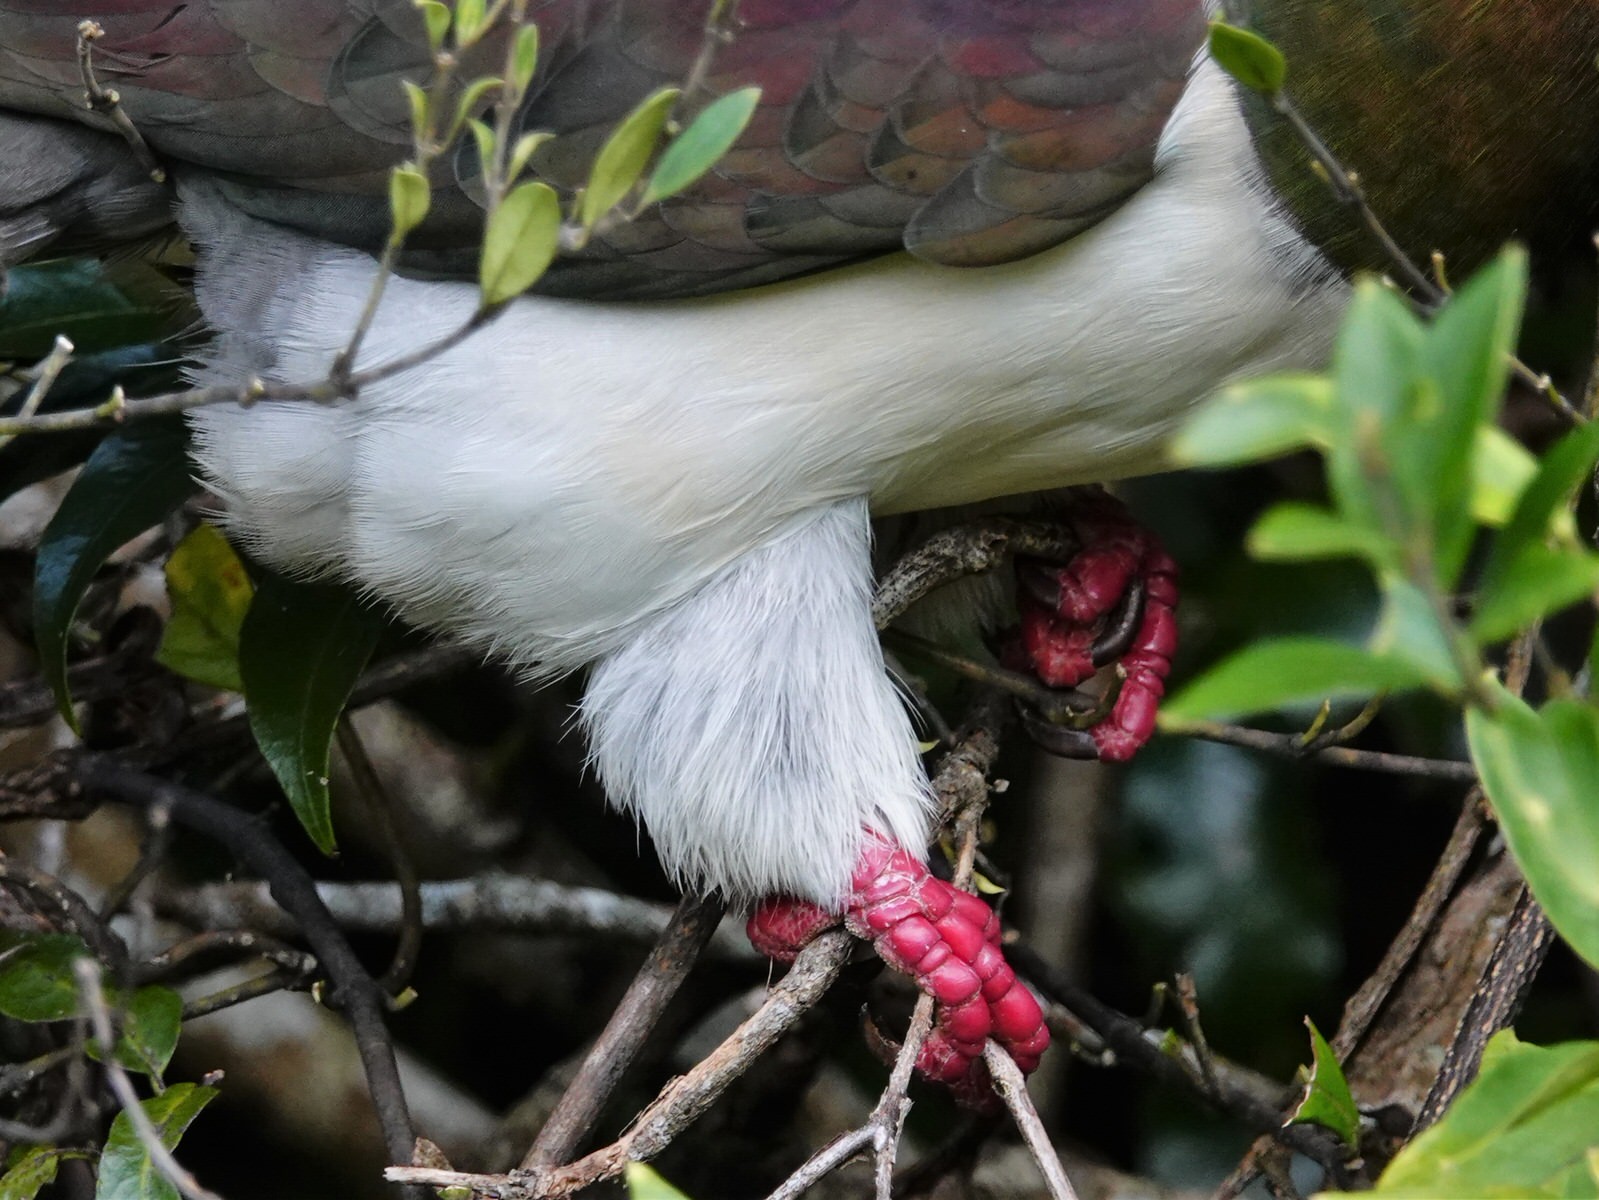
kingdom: Animalia
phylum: Chordata
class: Aves
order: Columbiformes
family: Columbidae
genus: Hemiphaga
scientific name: Hemiphaga novaeseelandiae
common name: New zealand pigeon
